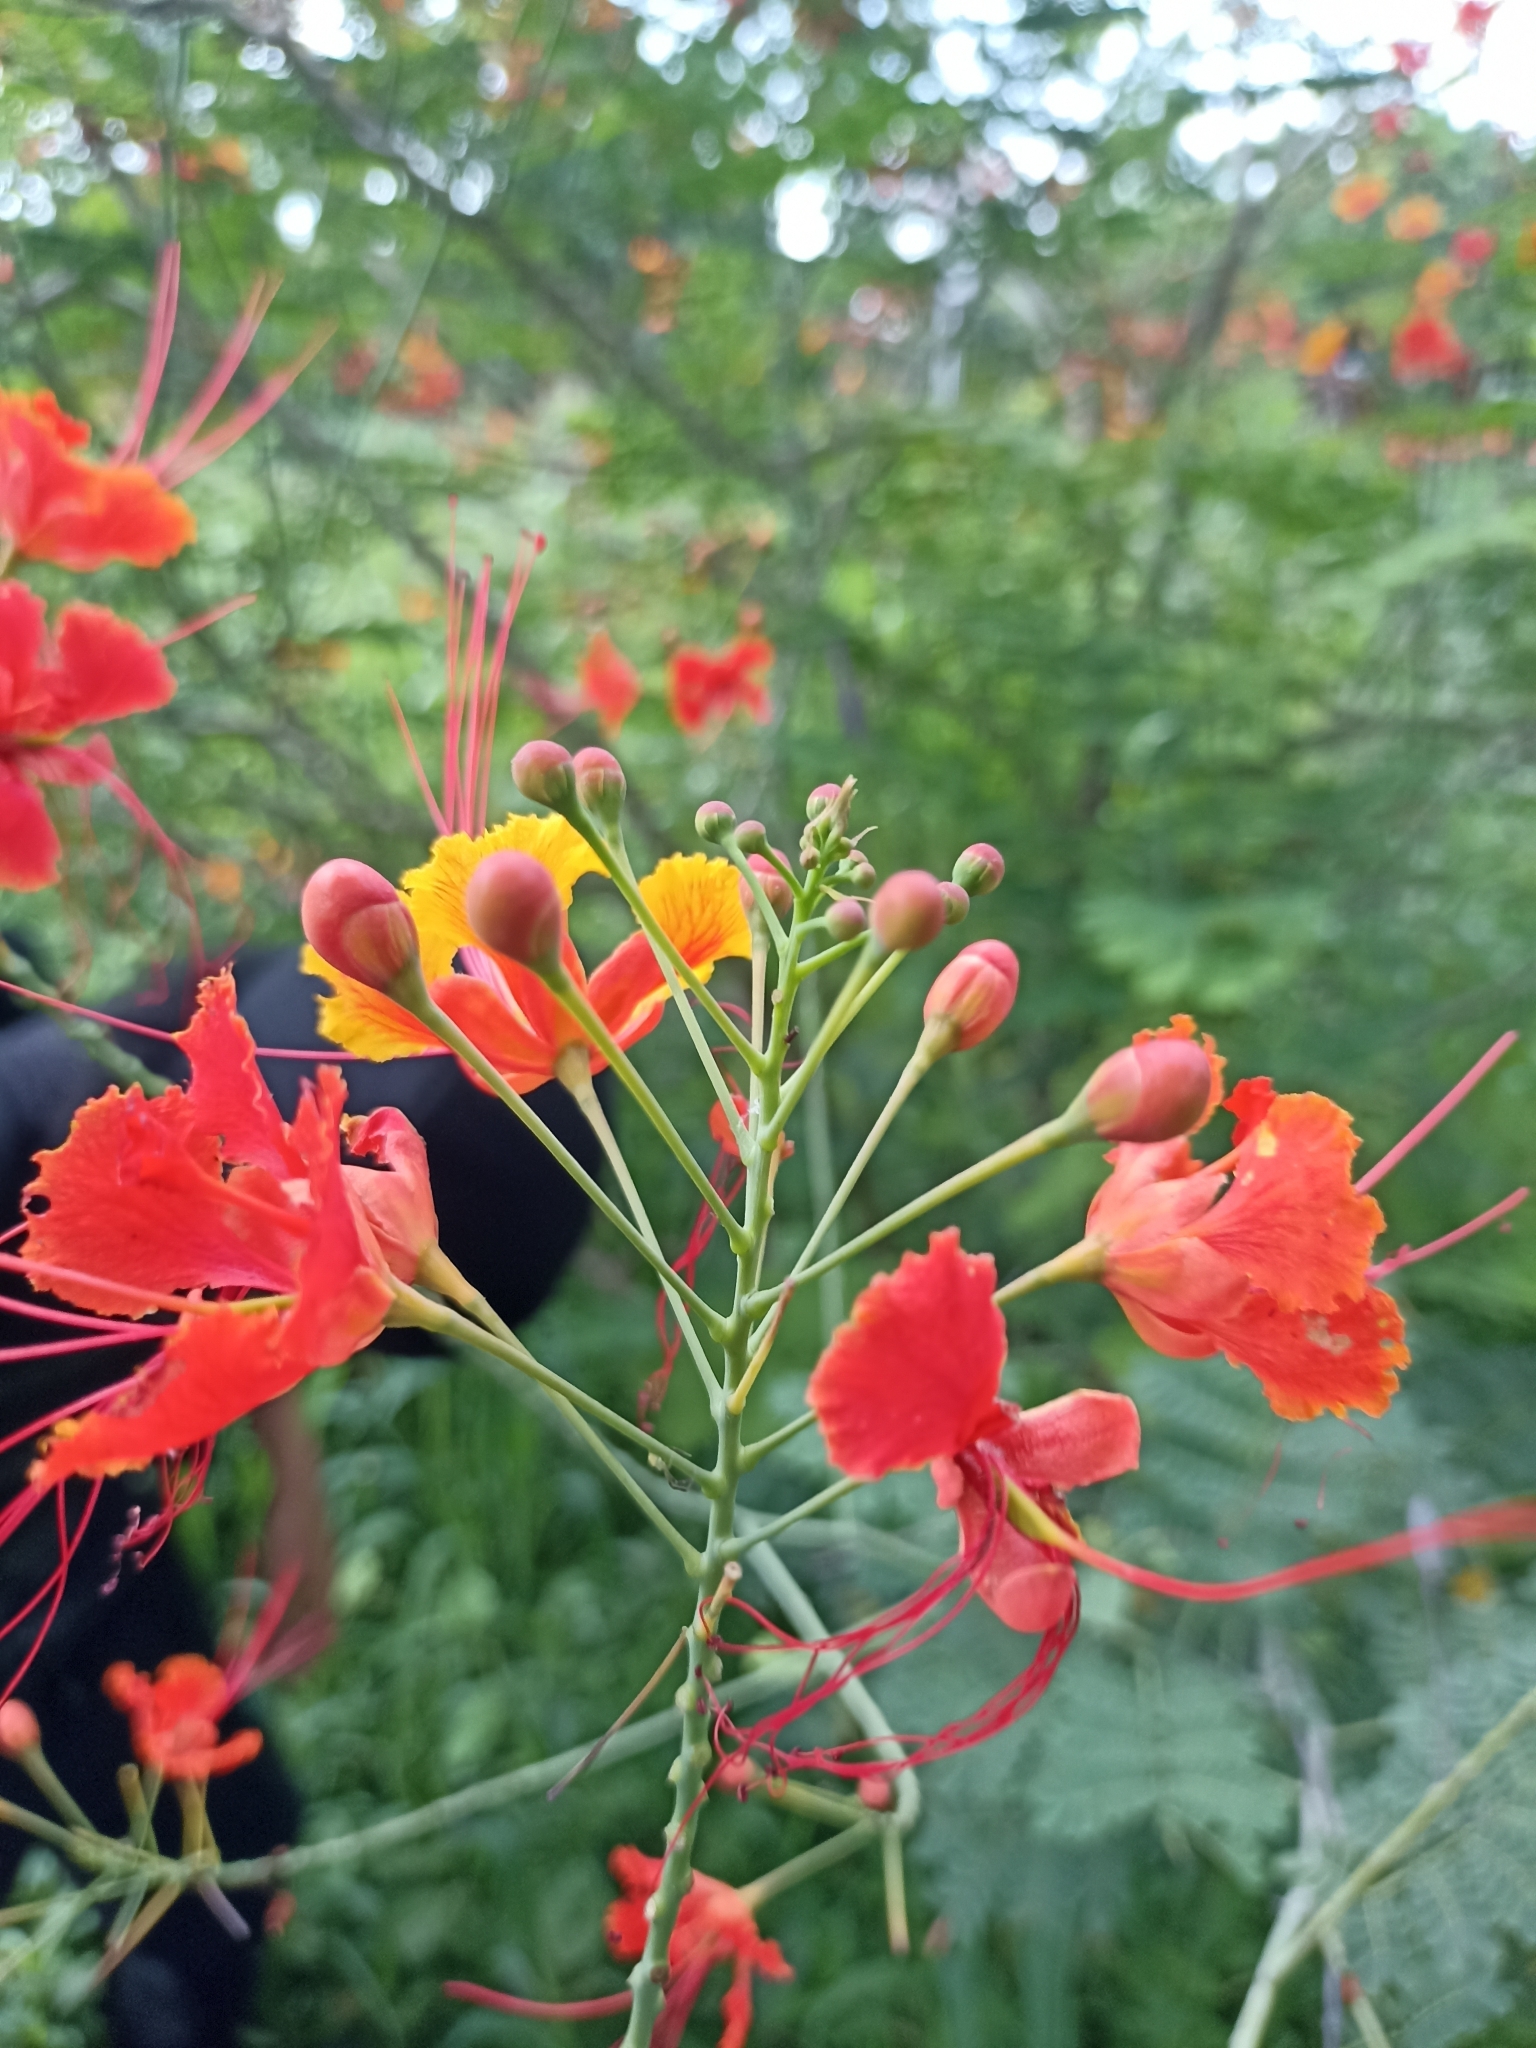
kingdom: Plantae
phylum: Tracheophyta
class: Magnoliopsida
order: Fabales
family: Fabaceae
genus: Caesalpinia
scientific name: Caesalpinia pulcherrima
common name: Pride-of-barbados
